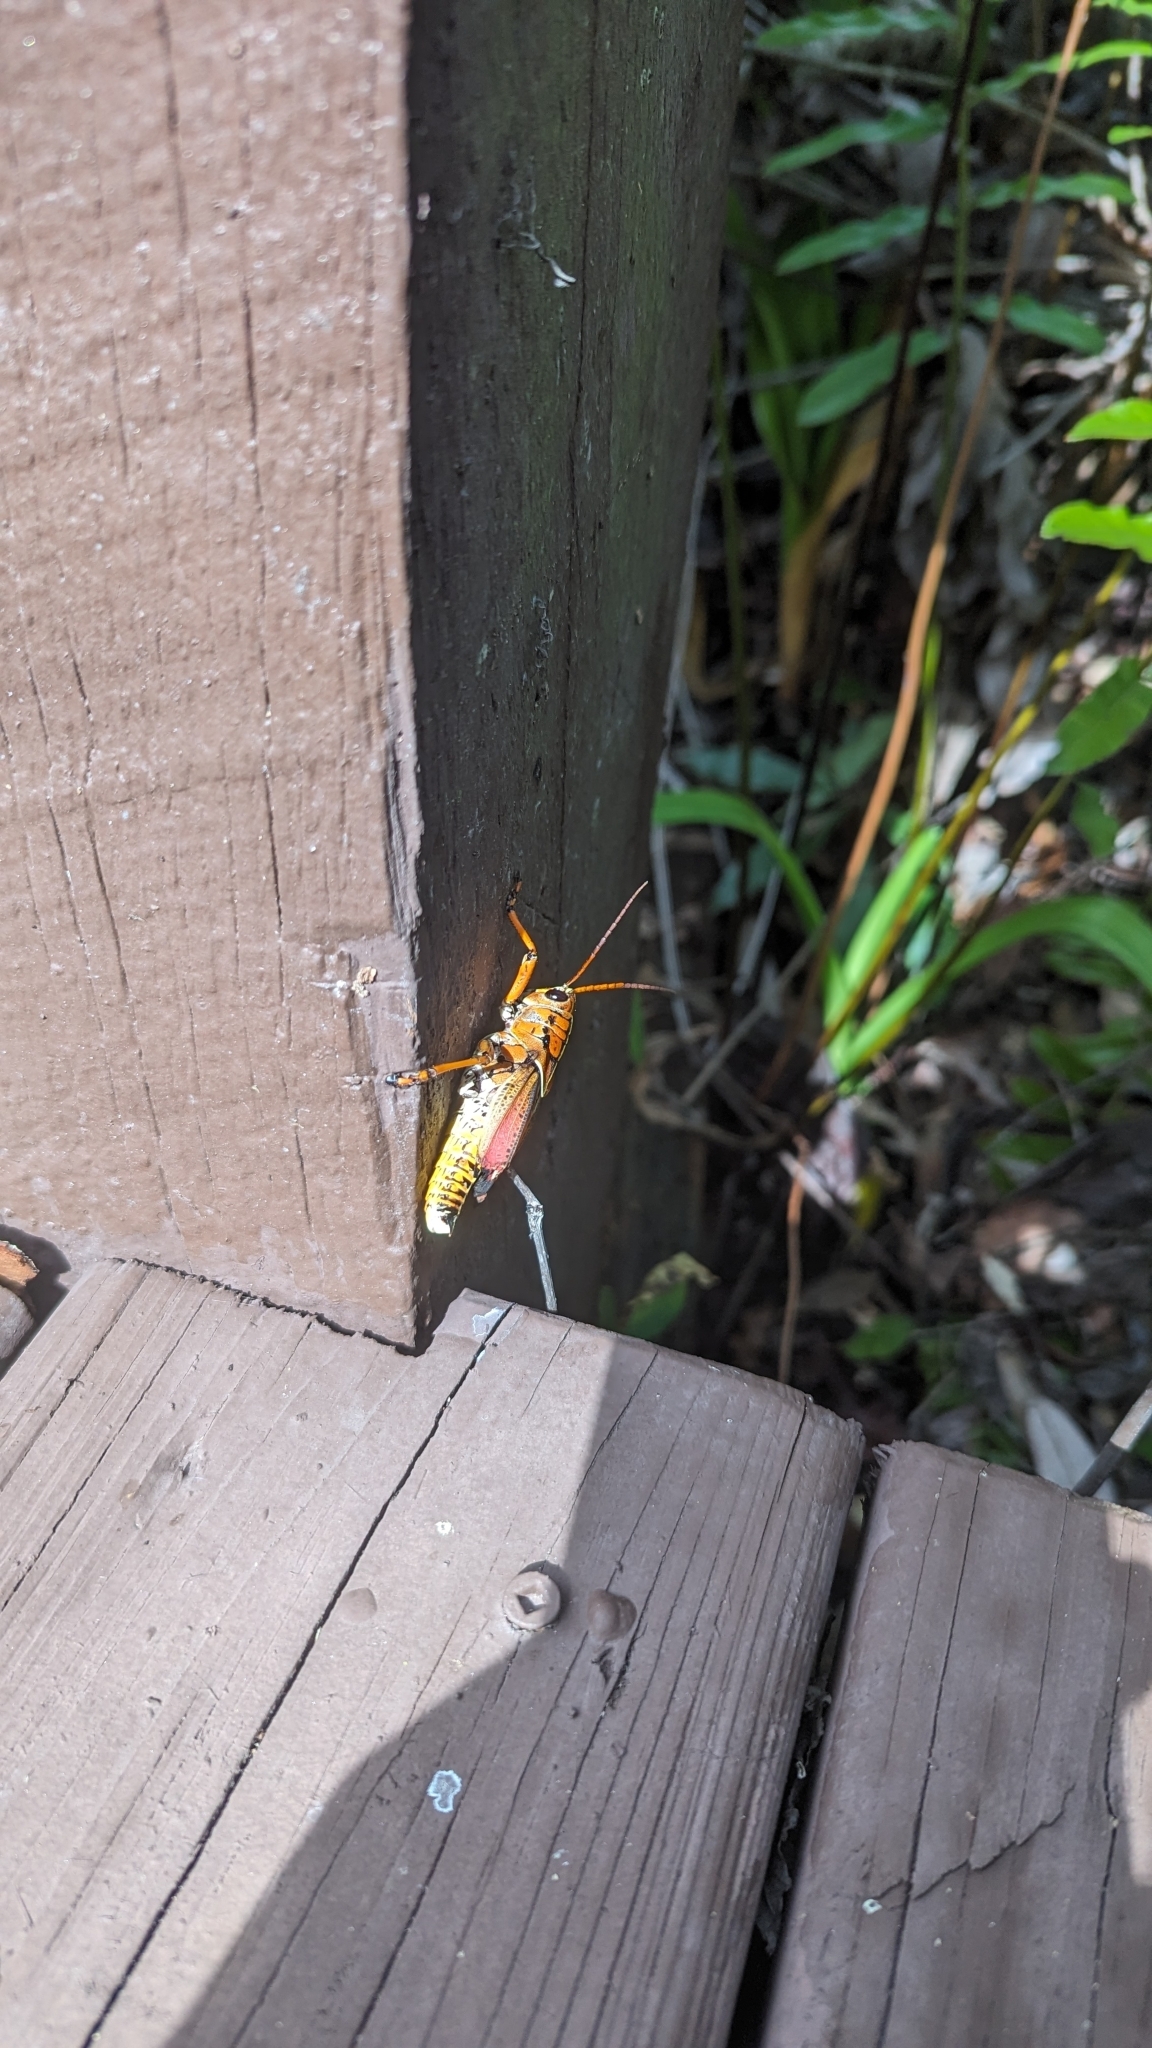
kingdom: Animalia
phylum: Arthropoda
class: Insecta
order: Orthoptera
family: Romaleidae
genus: Romalea
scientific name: Romalea microptera
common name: Eastern lubber grasshopper
